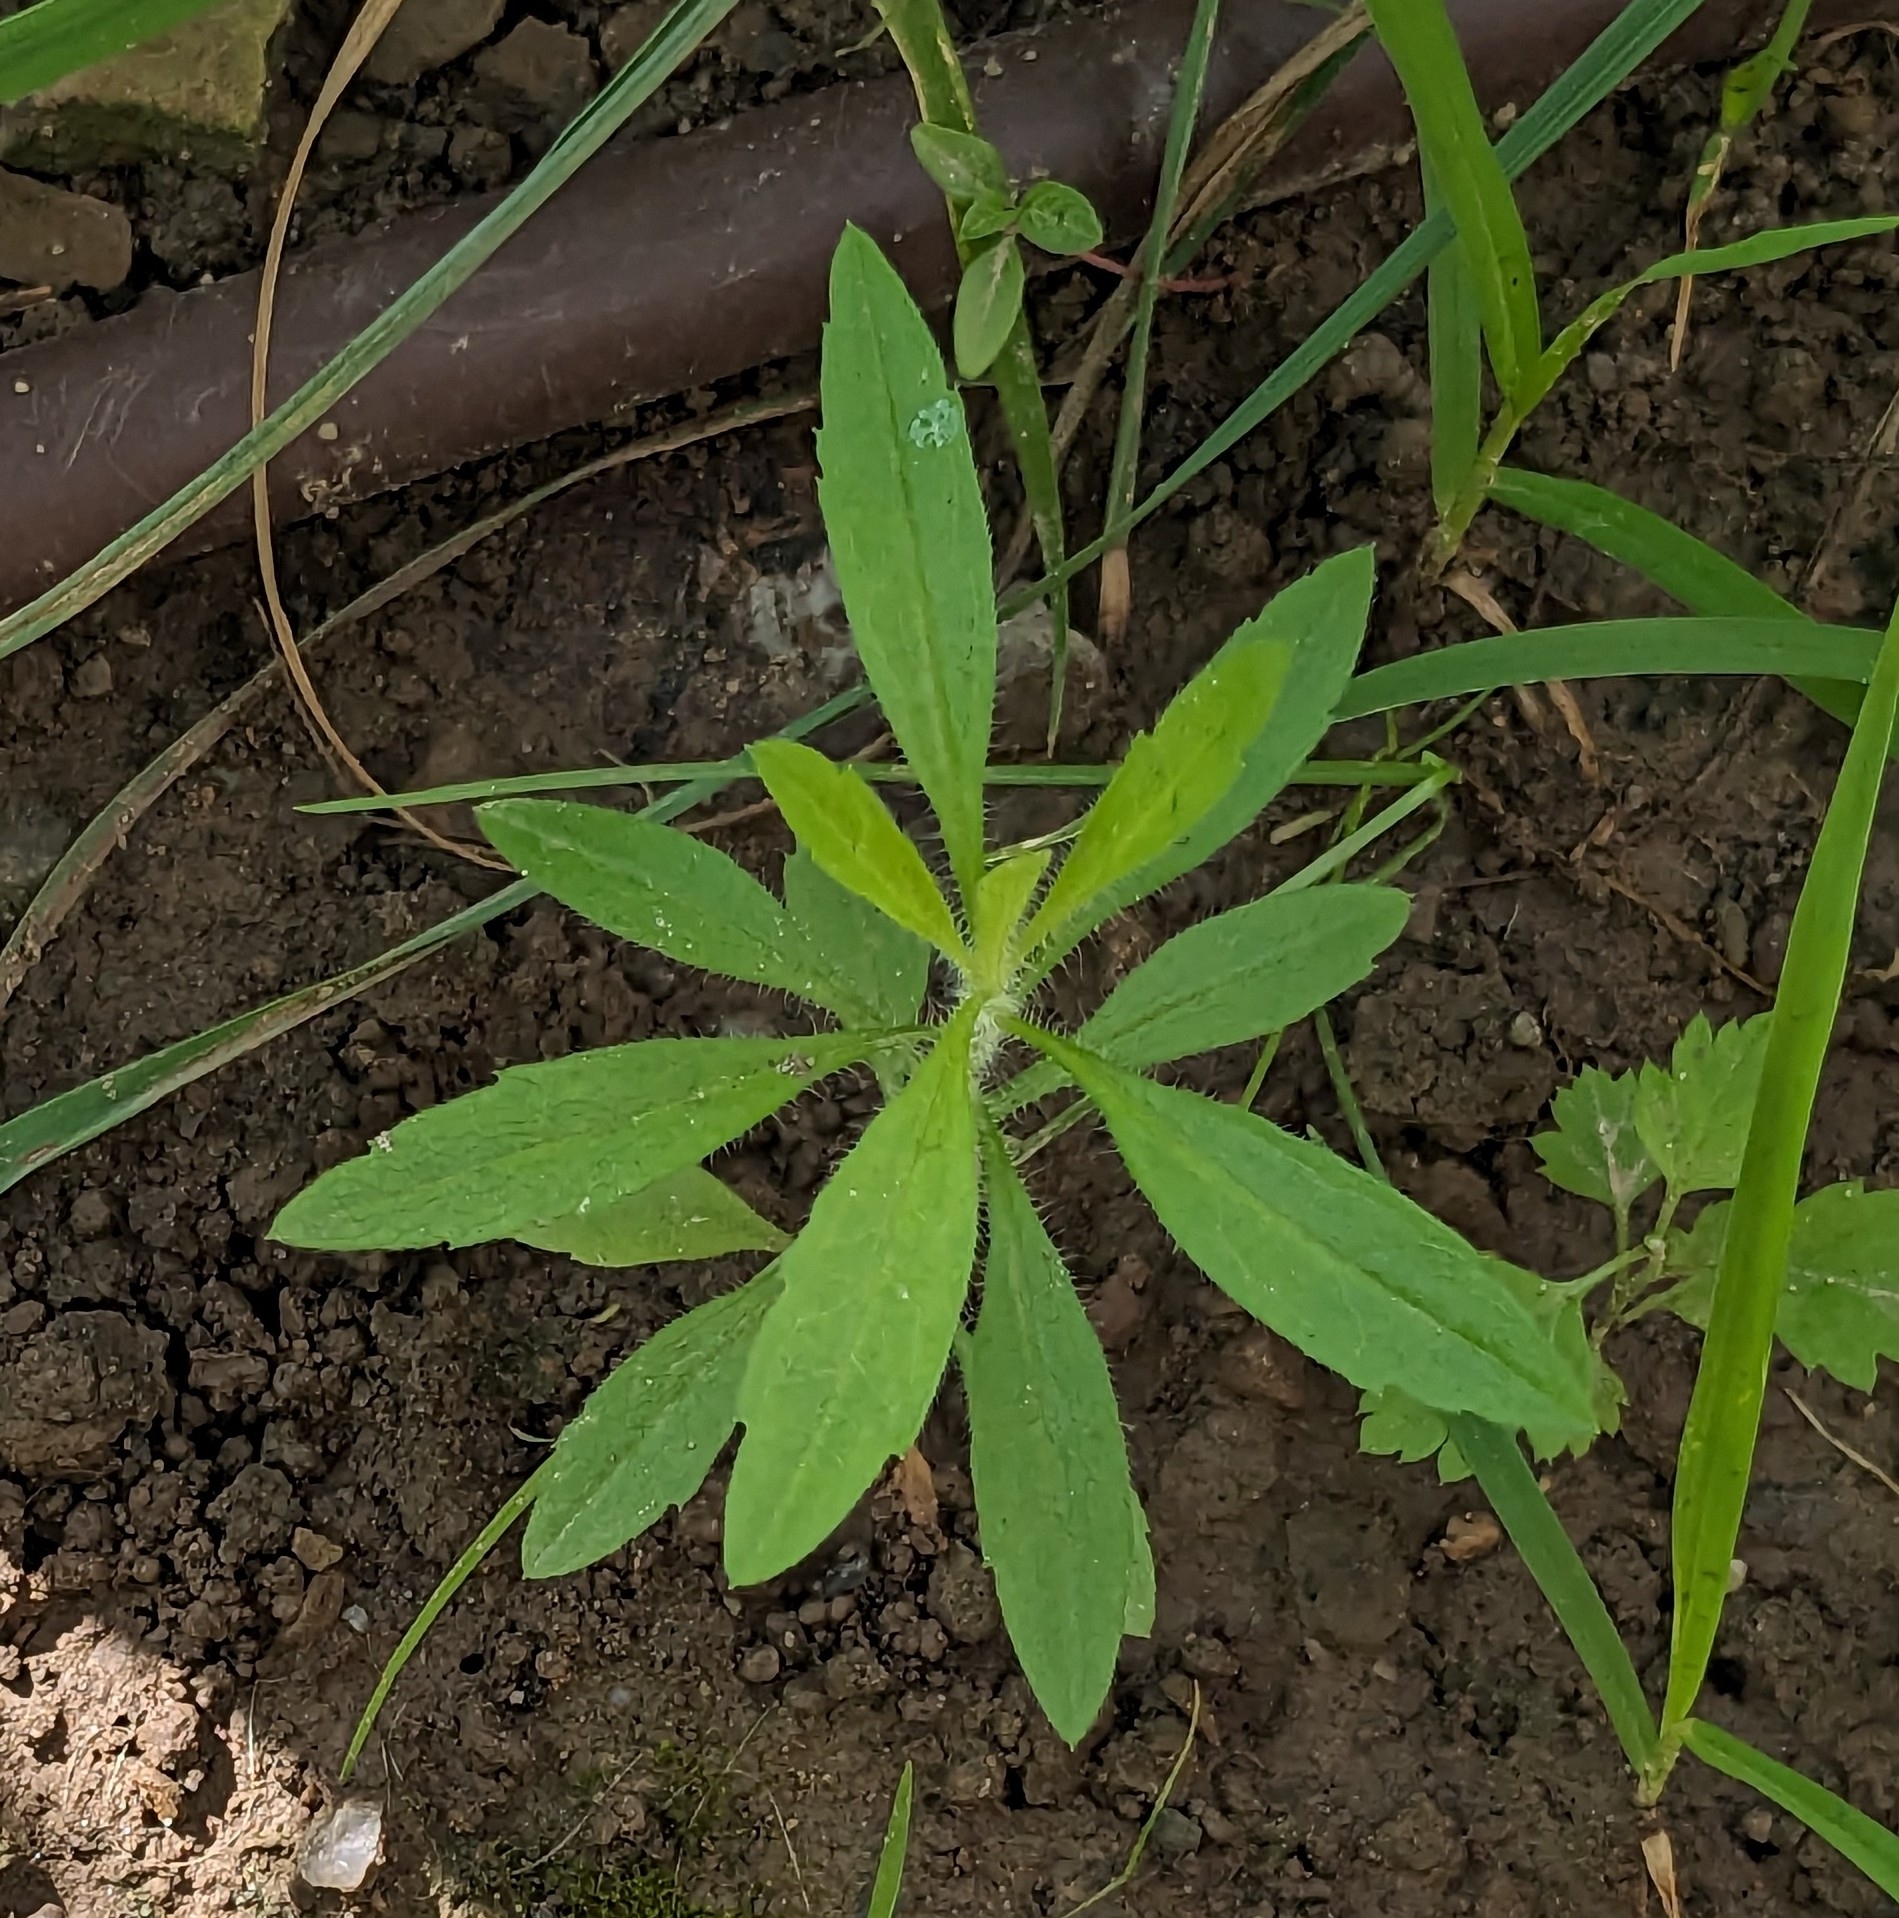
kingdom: Plantae
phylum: Tracheophyta
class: Magnoliopsida
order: Asterales
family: Asteraceae
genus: Erigeron
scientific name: Erigeron canadensis
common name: Canadian fleabane
